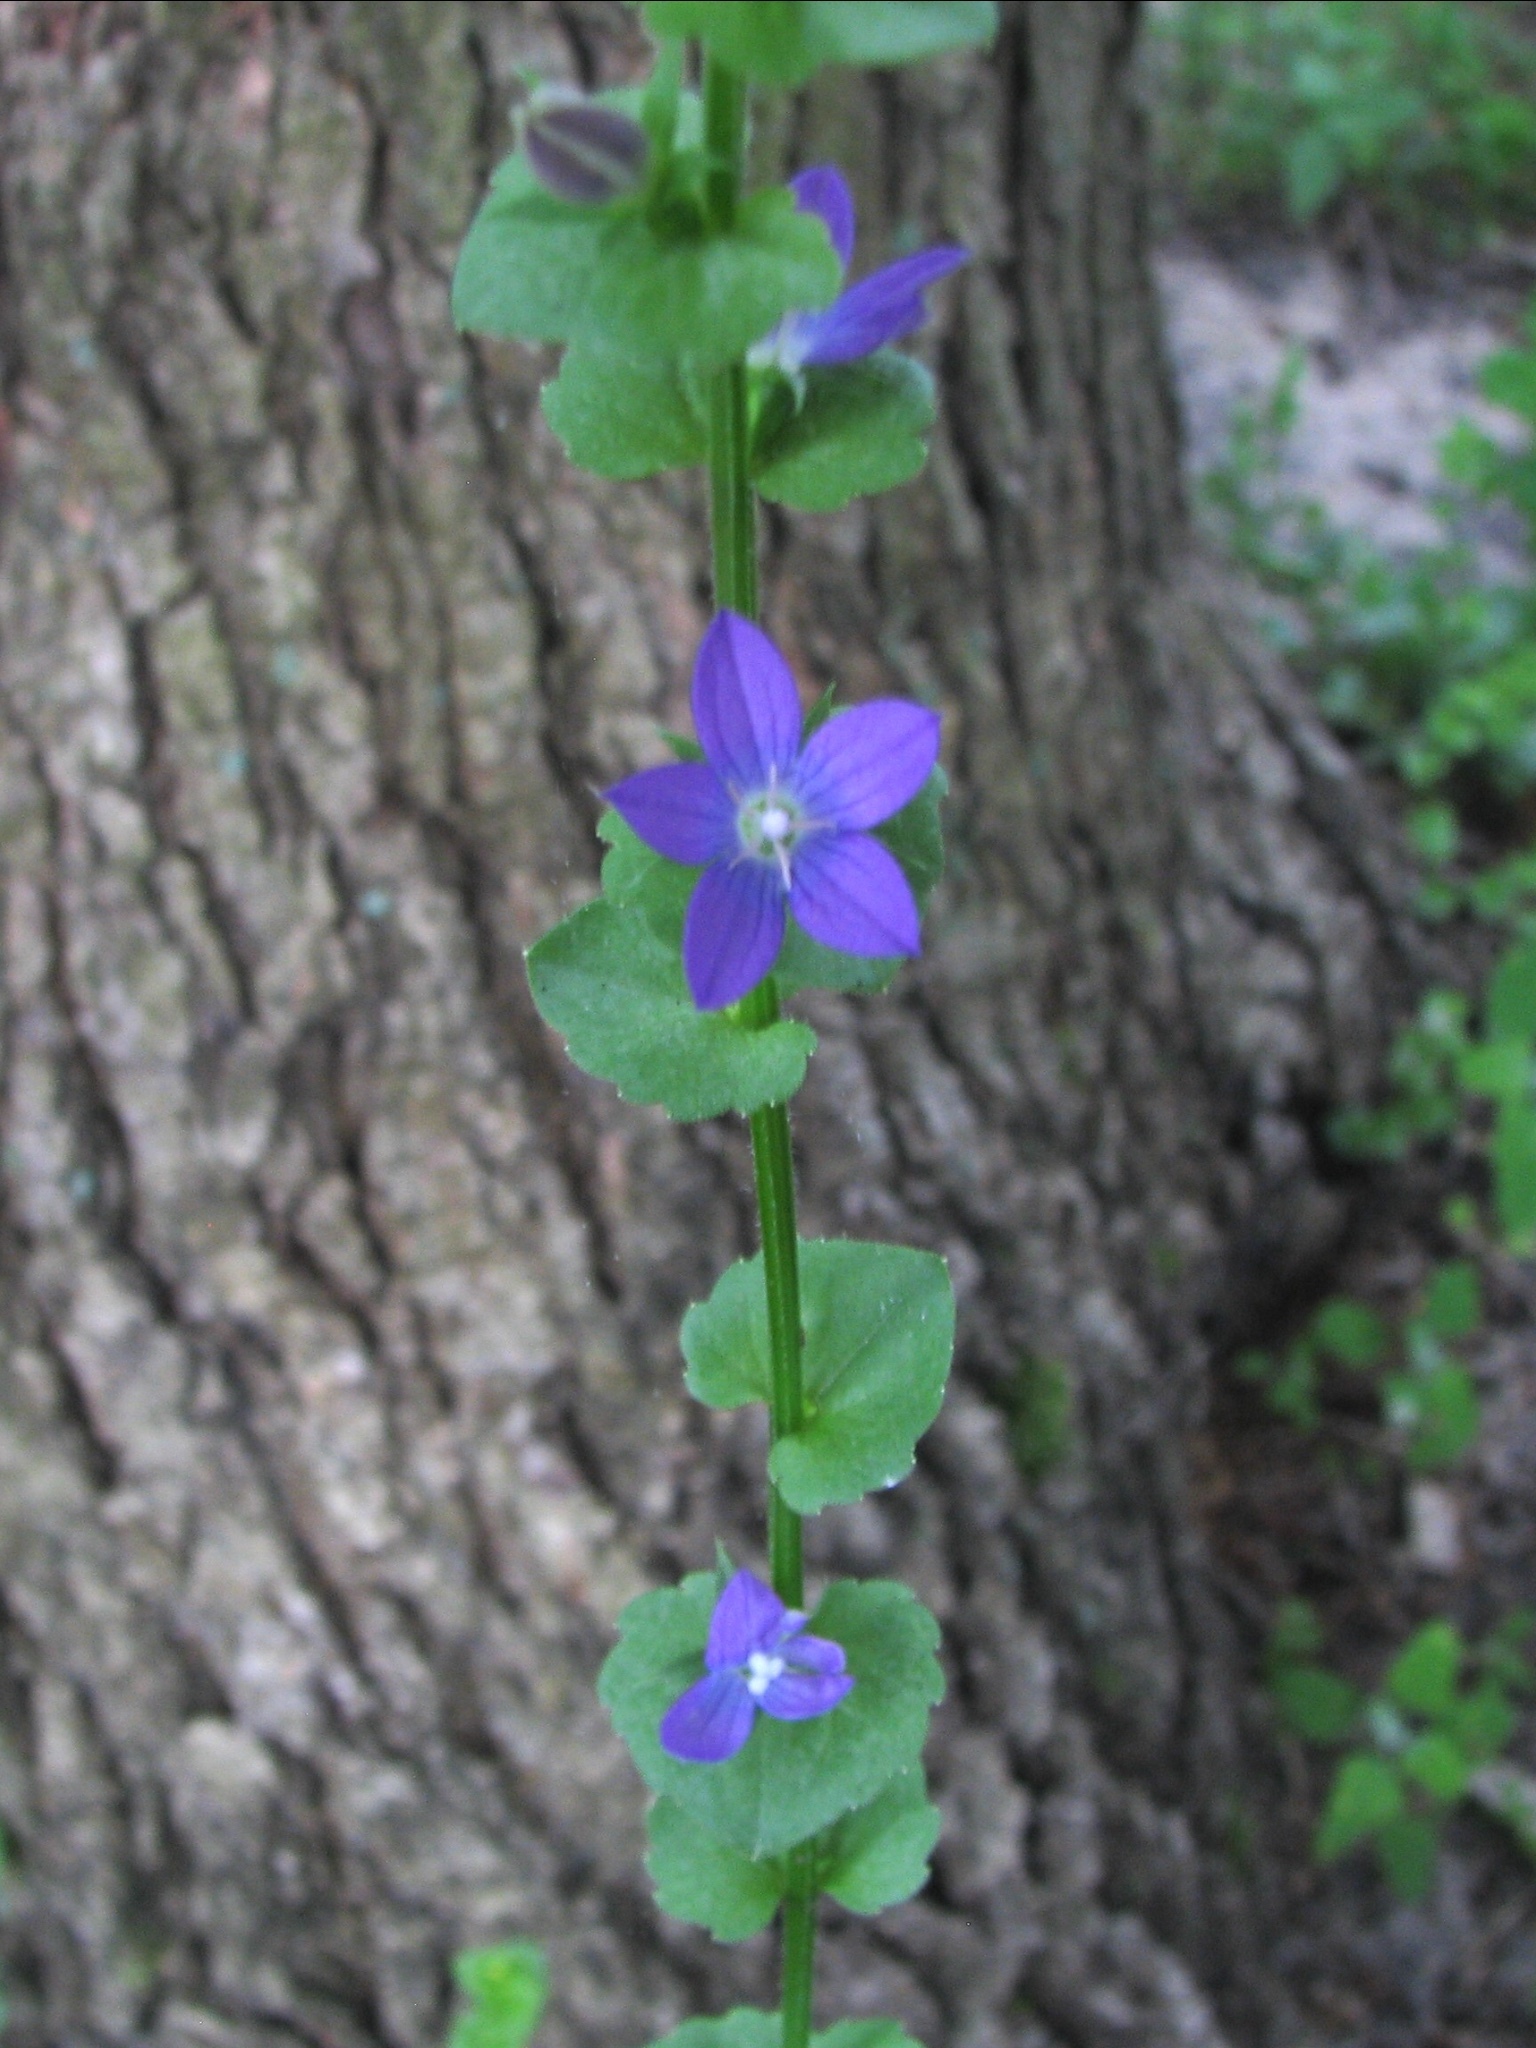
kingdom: Plantae
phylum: Tracheophyta
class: Magnoliopsida
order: Asterales
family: Campanulaceae
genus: Triodanis
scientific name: Triodanis perfoliata
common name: Clasping venus' looking-glass
